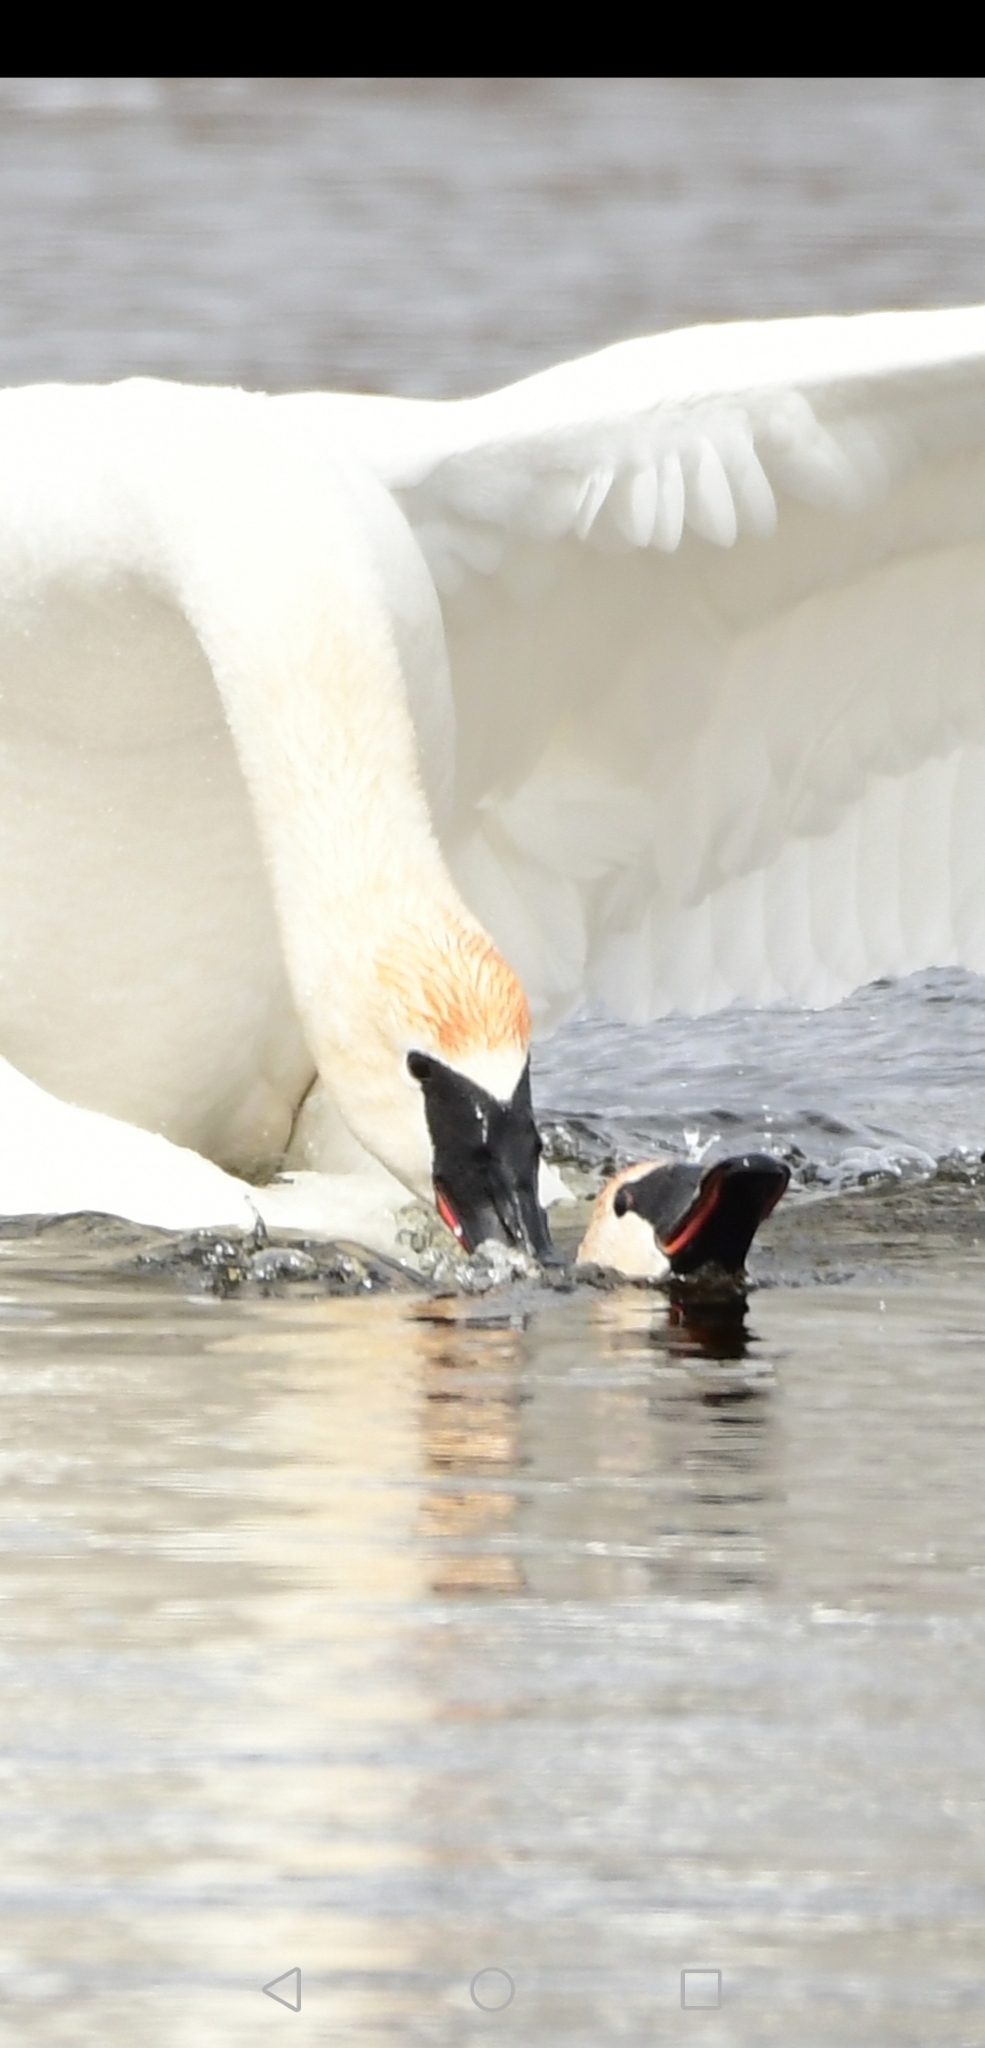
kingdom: Animalia
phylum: Chordata
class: Aves
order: Anseriformes
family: Anatidae
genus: Cygnus
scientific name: Cygnus buccinator
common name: Trumpeter swan
